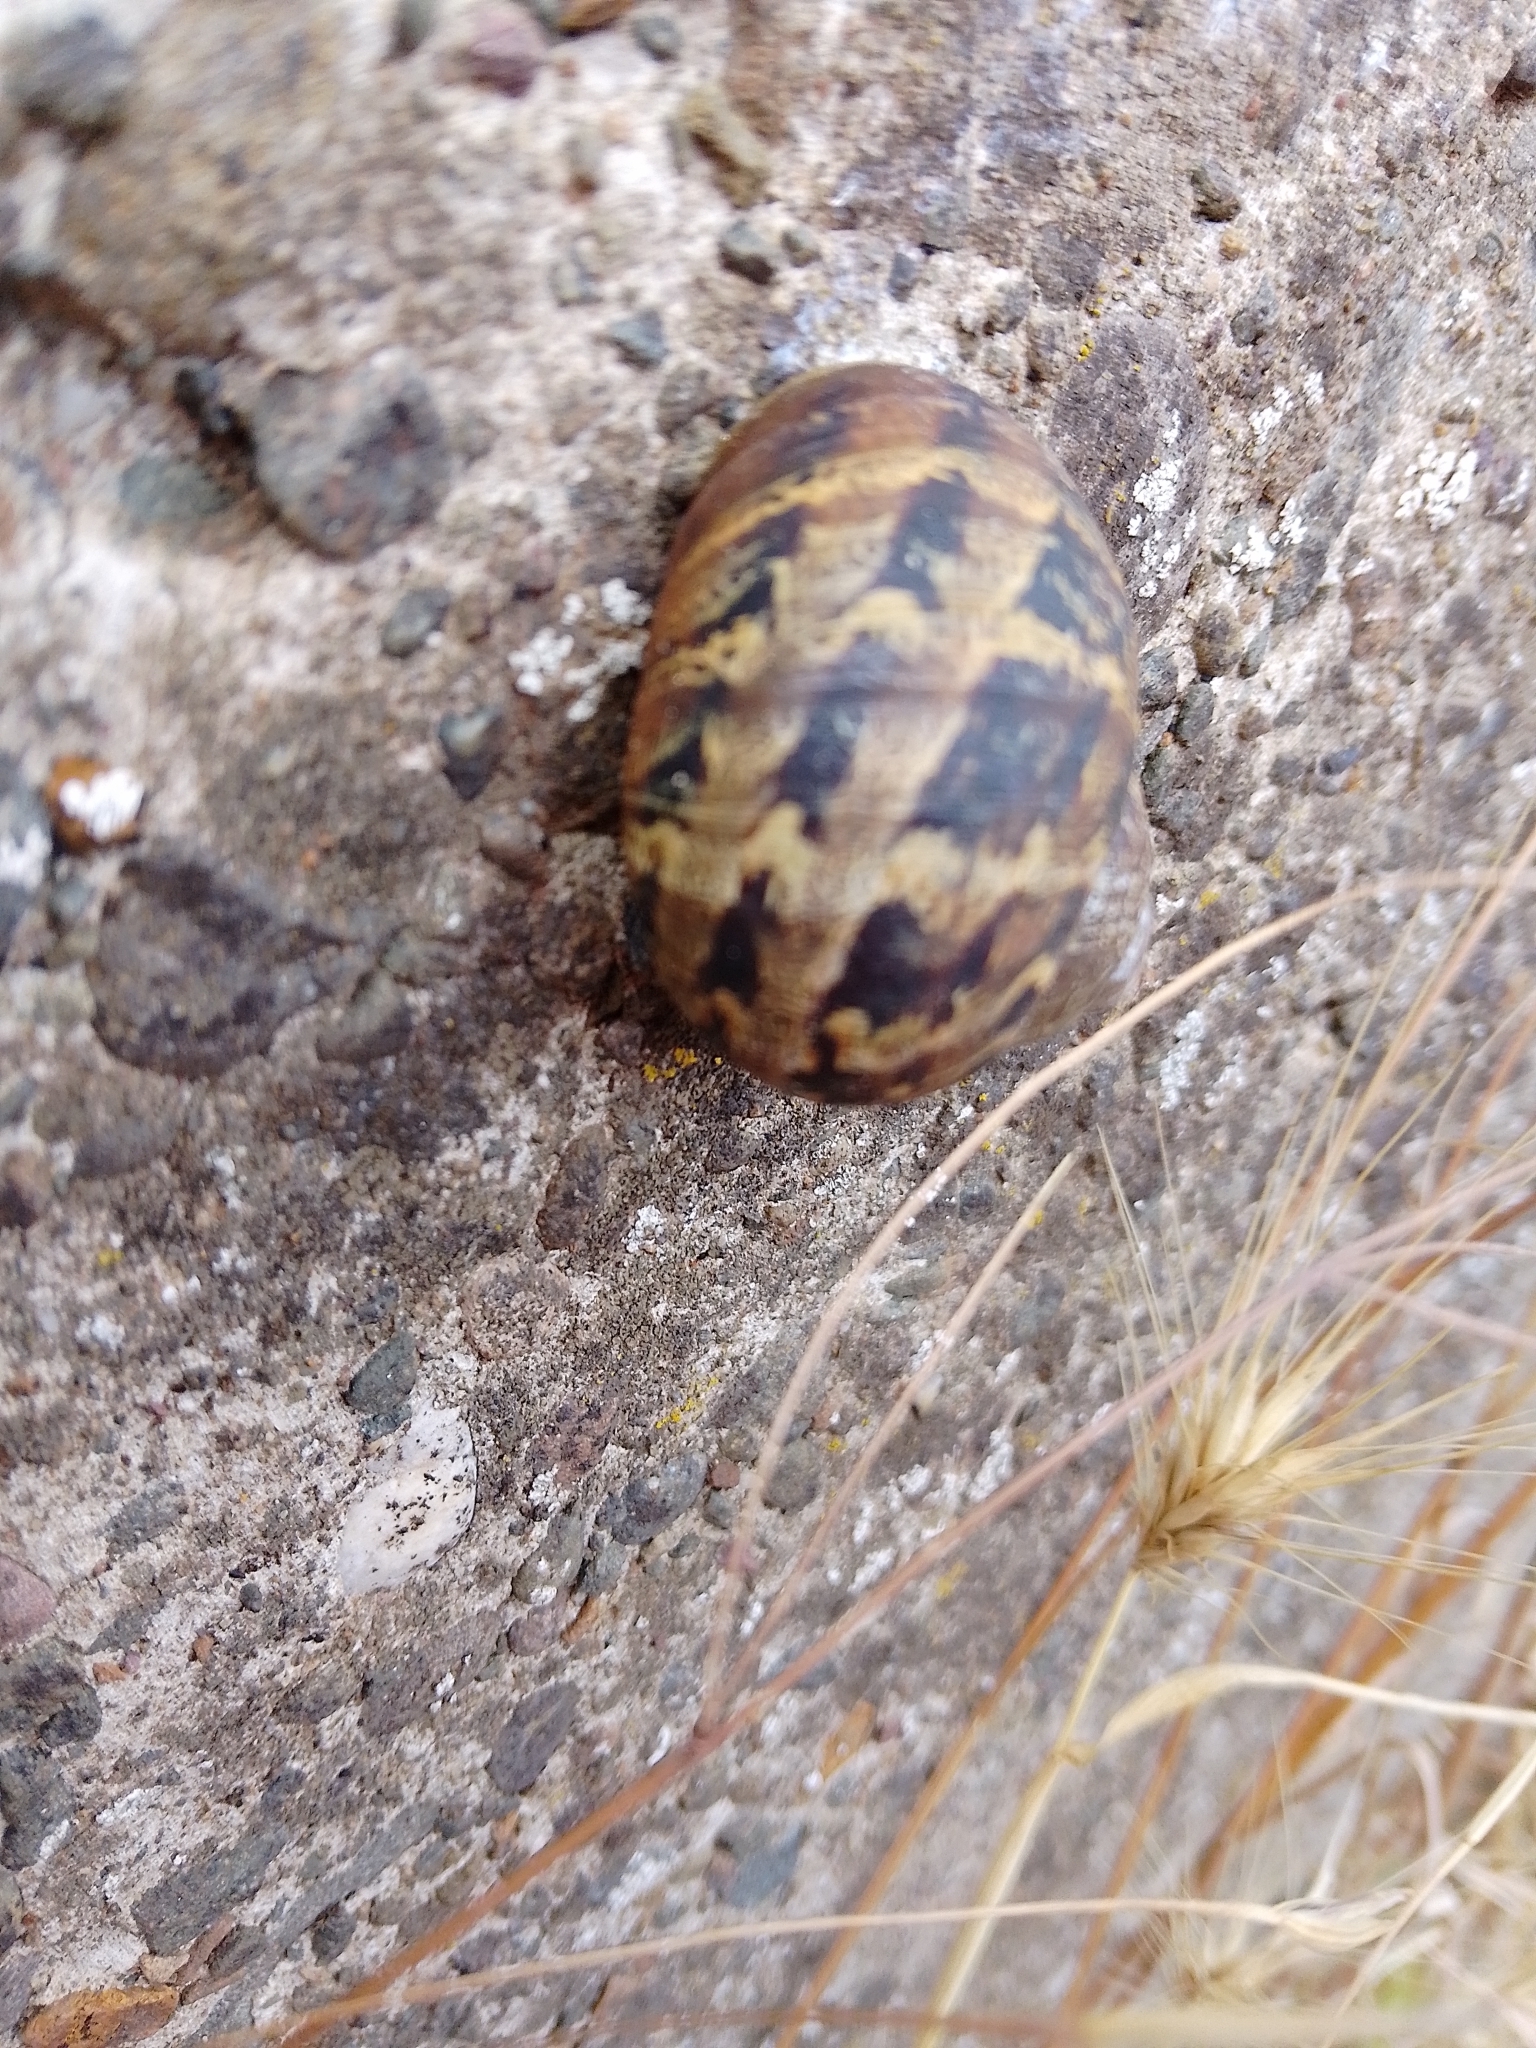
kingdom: Animalia
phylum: Mollusca
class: Gastropoda
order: Stylommatophora
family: Helicidae
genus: Cornu
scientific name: Cornu aspersum
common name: Brown garden snail
